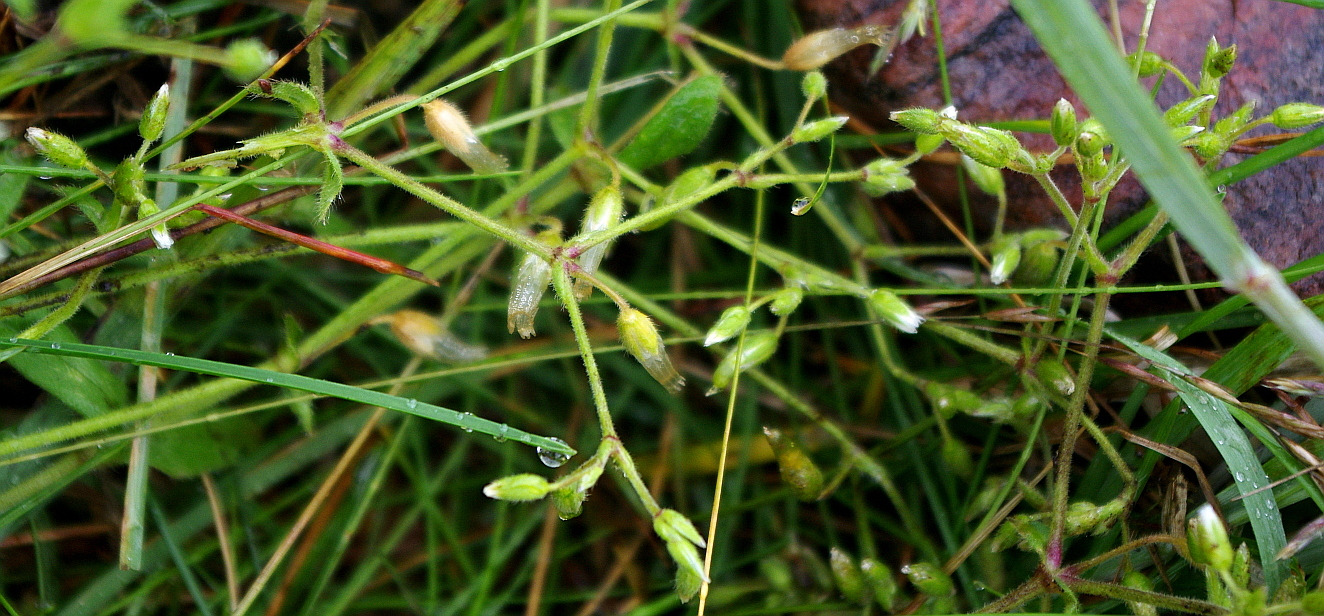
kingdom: Plantae
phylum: Tracheophyta
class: Magnoliopsida
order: Caryophyllales
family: Caryophyllaceae
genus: Cerastium
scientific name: Cerastium holosteoides
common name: Big chickweed
